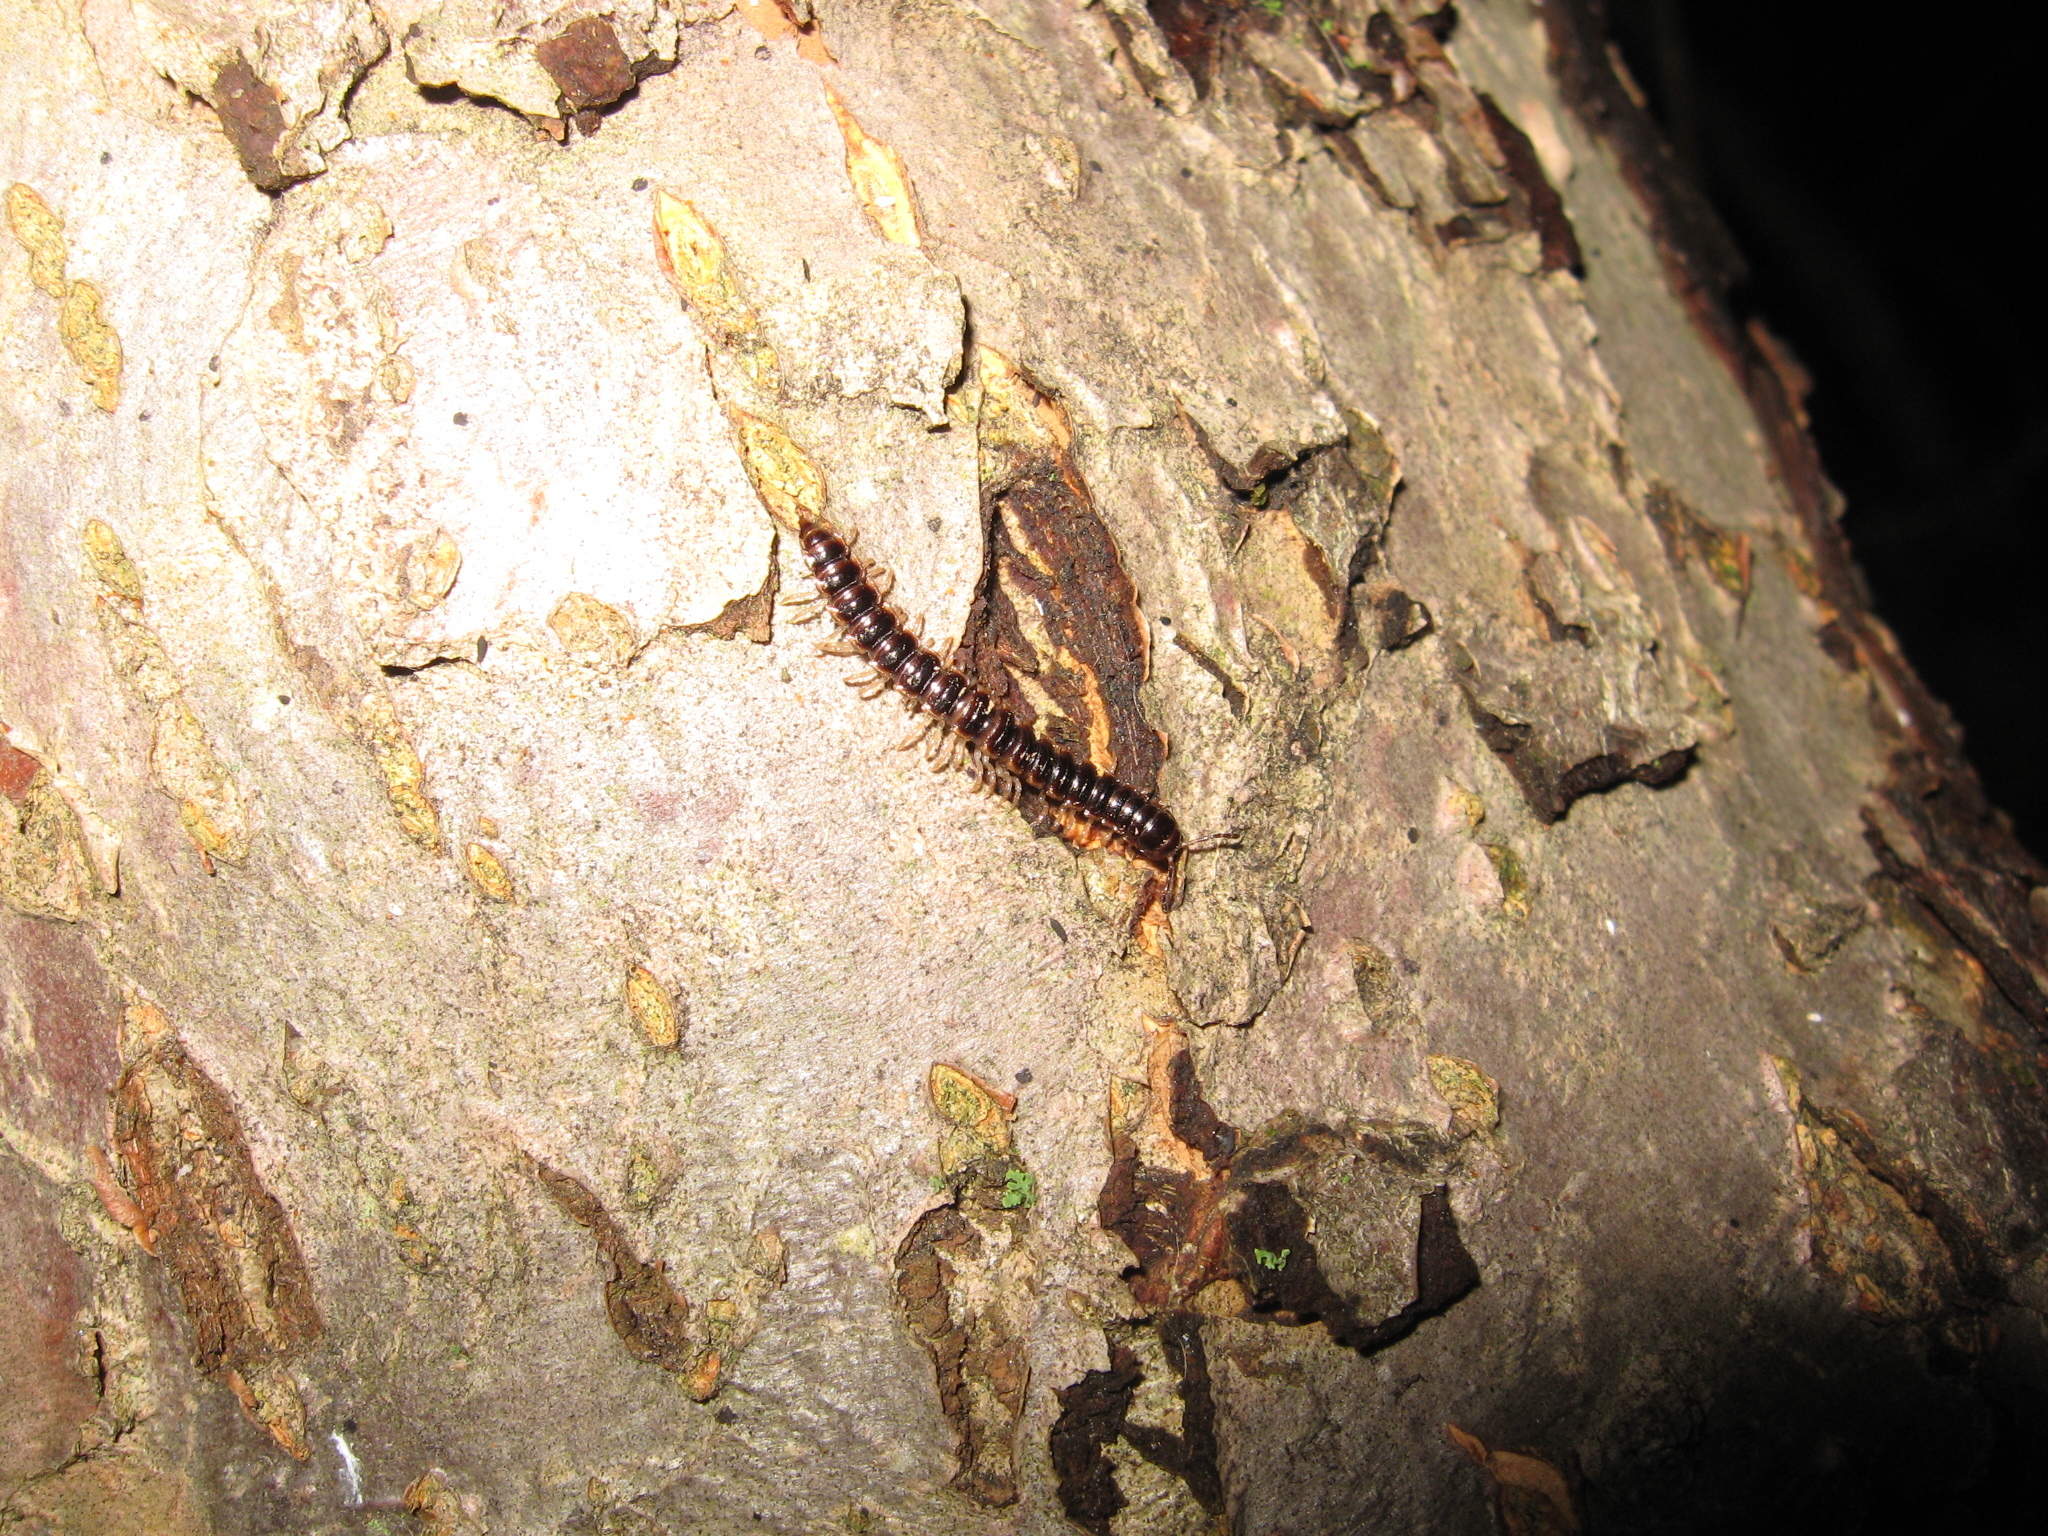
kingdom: Animalia
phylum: Arthropoda
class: Diplopoda
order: Polydesmida
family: Paradoxosomatidae
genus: Oxidus
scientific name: Oxidus gracilis
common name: Greenhouse millipede
